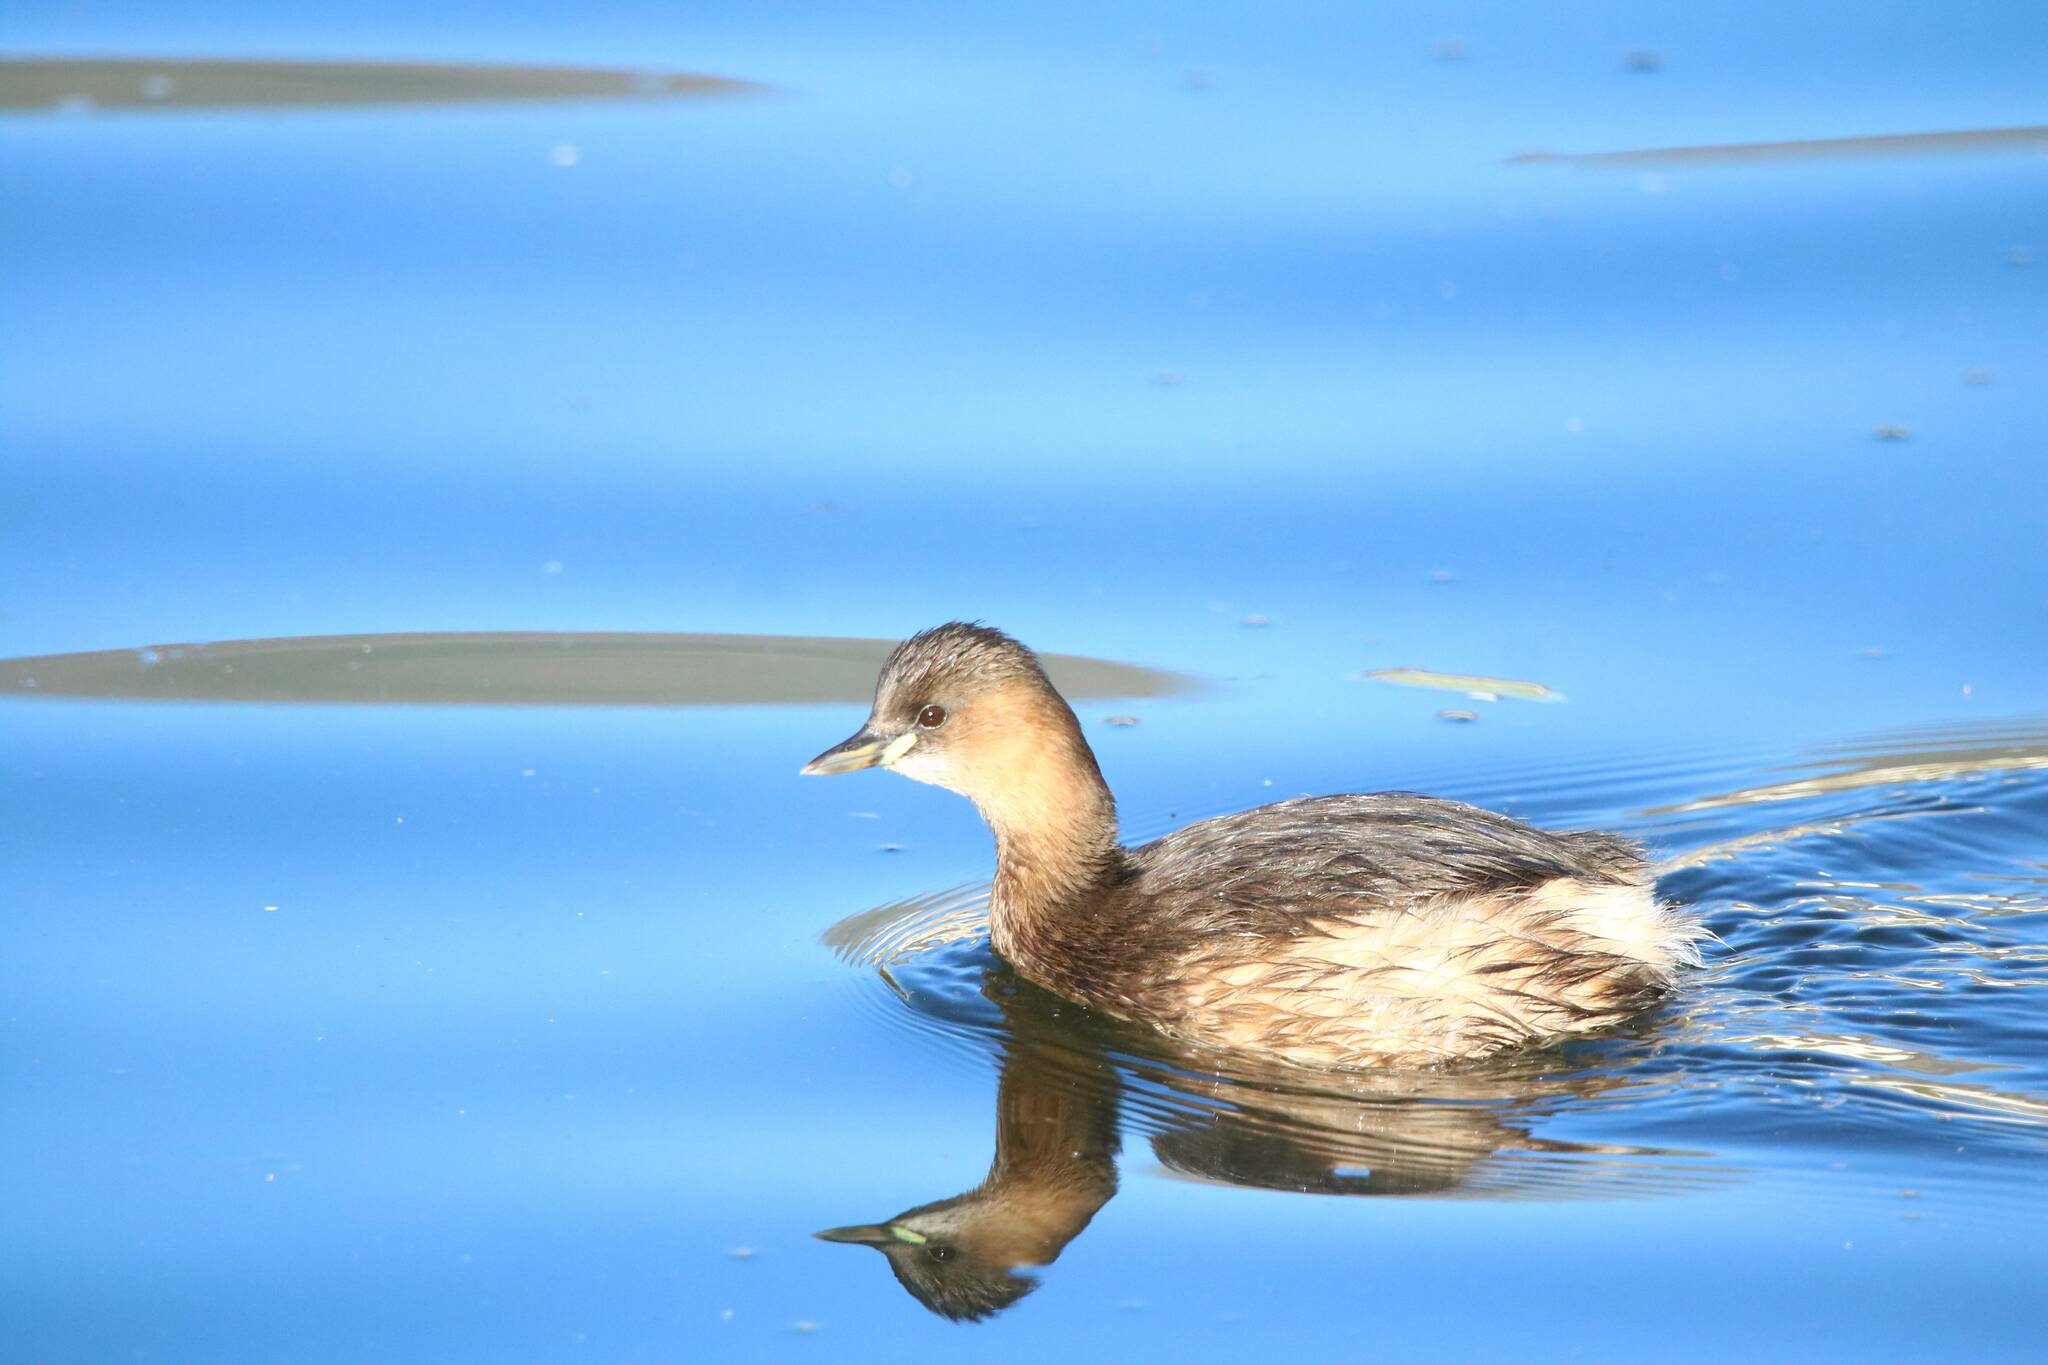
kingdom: Animalia
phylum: Chordata
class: Aves
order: Podicipediformes
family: Podicipedidae
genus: Tachybaptus
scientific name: Tachybaptus ruficollis
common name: Little grebe
